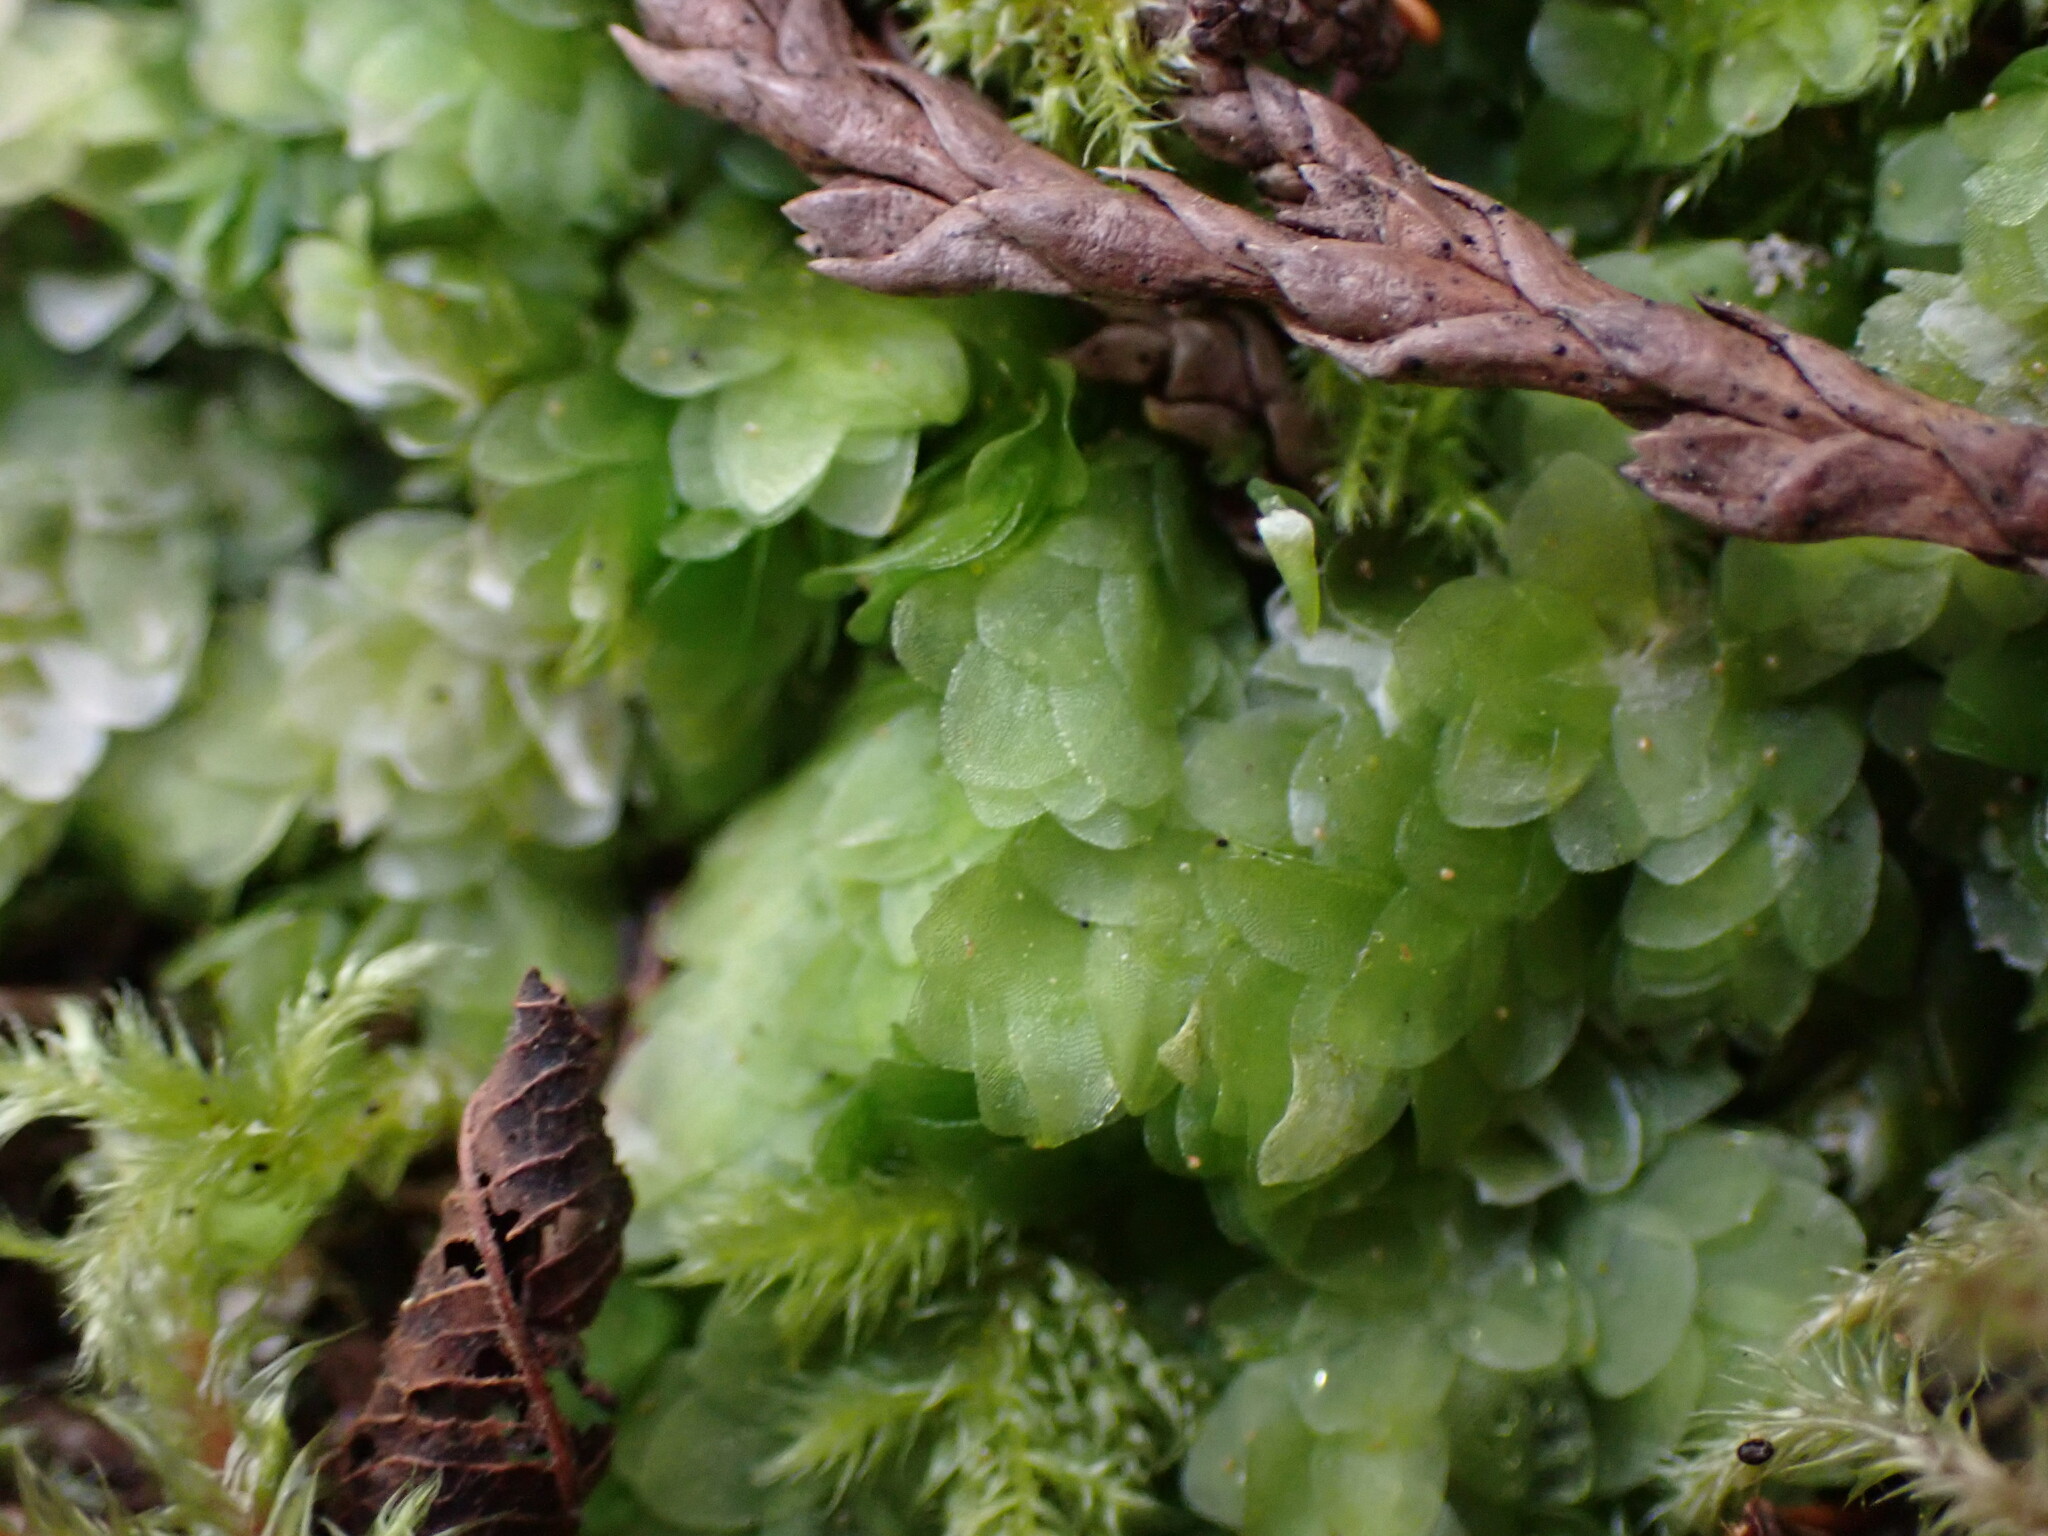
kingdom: Plantae
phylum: Bryophyta
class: Bryopsida
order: Hookeriales
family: Hookeriaceae
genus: Hookeria
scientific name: Hookeria lucens
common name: Shining hookeria
